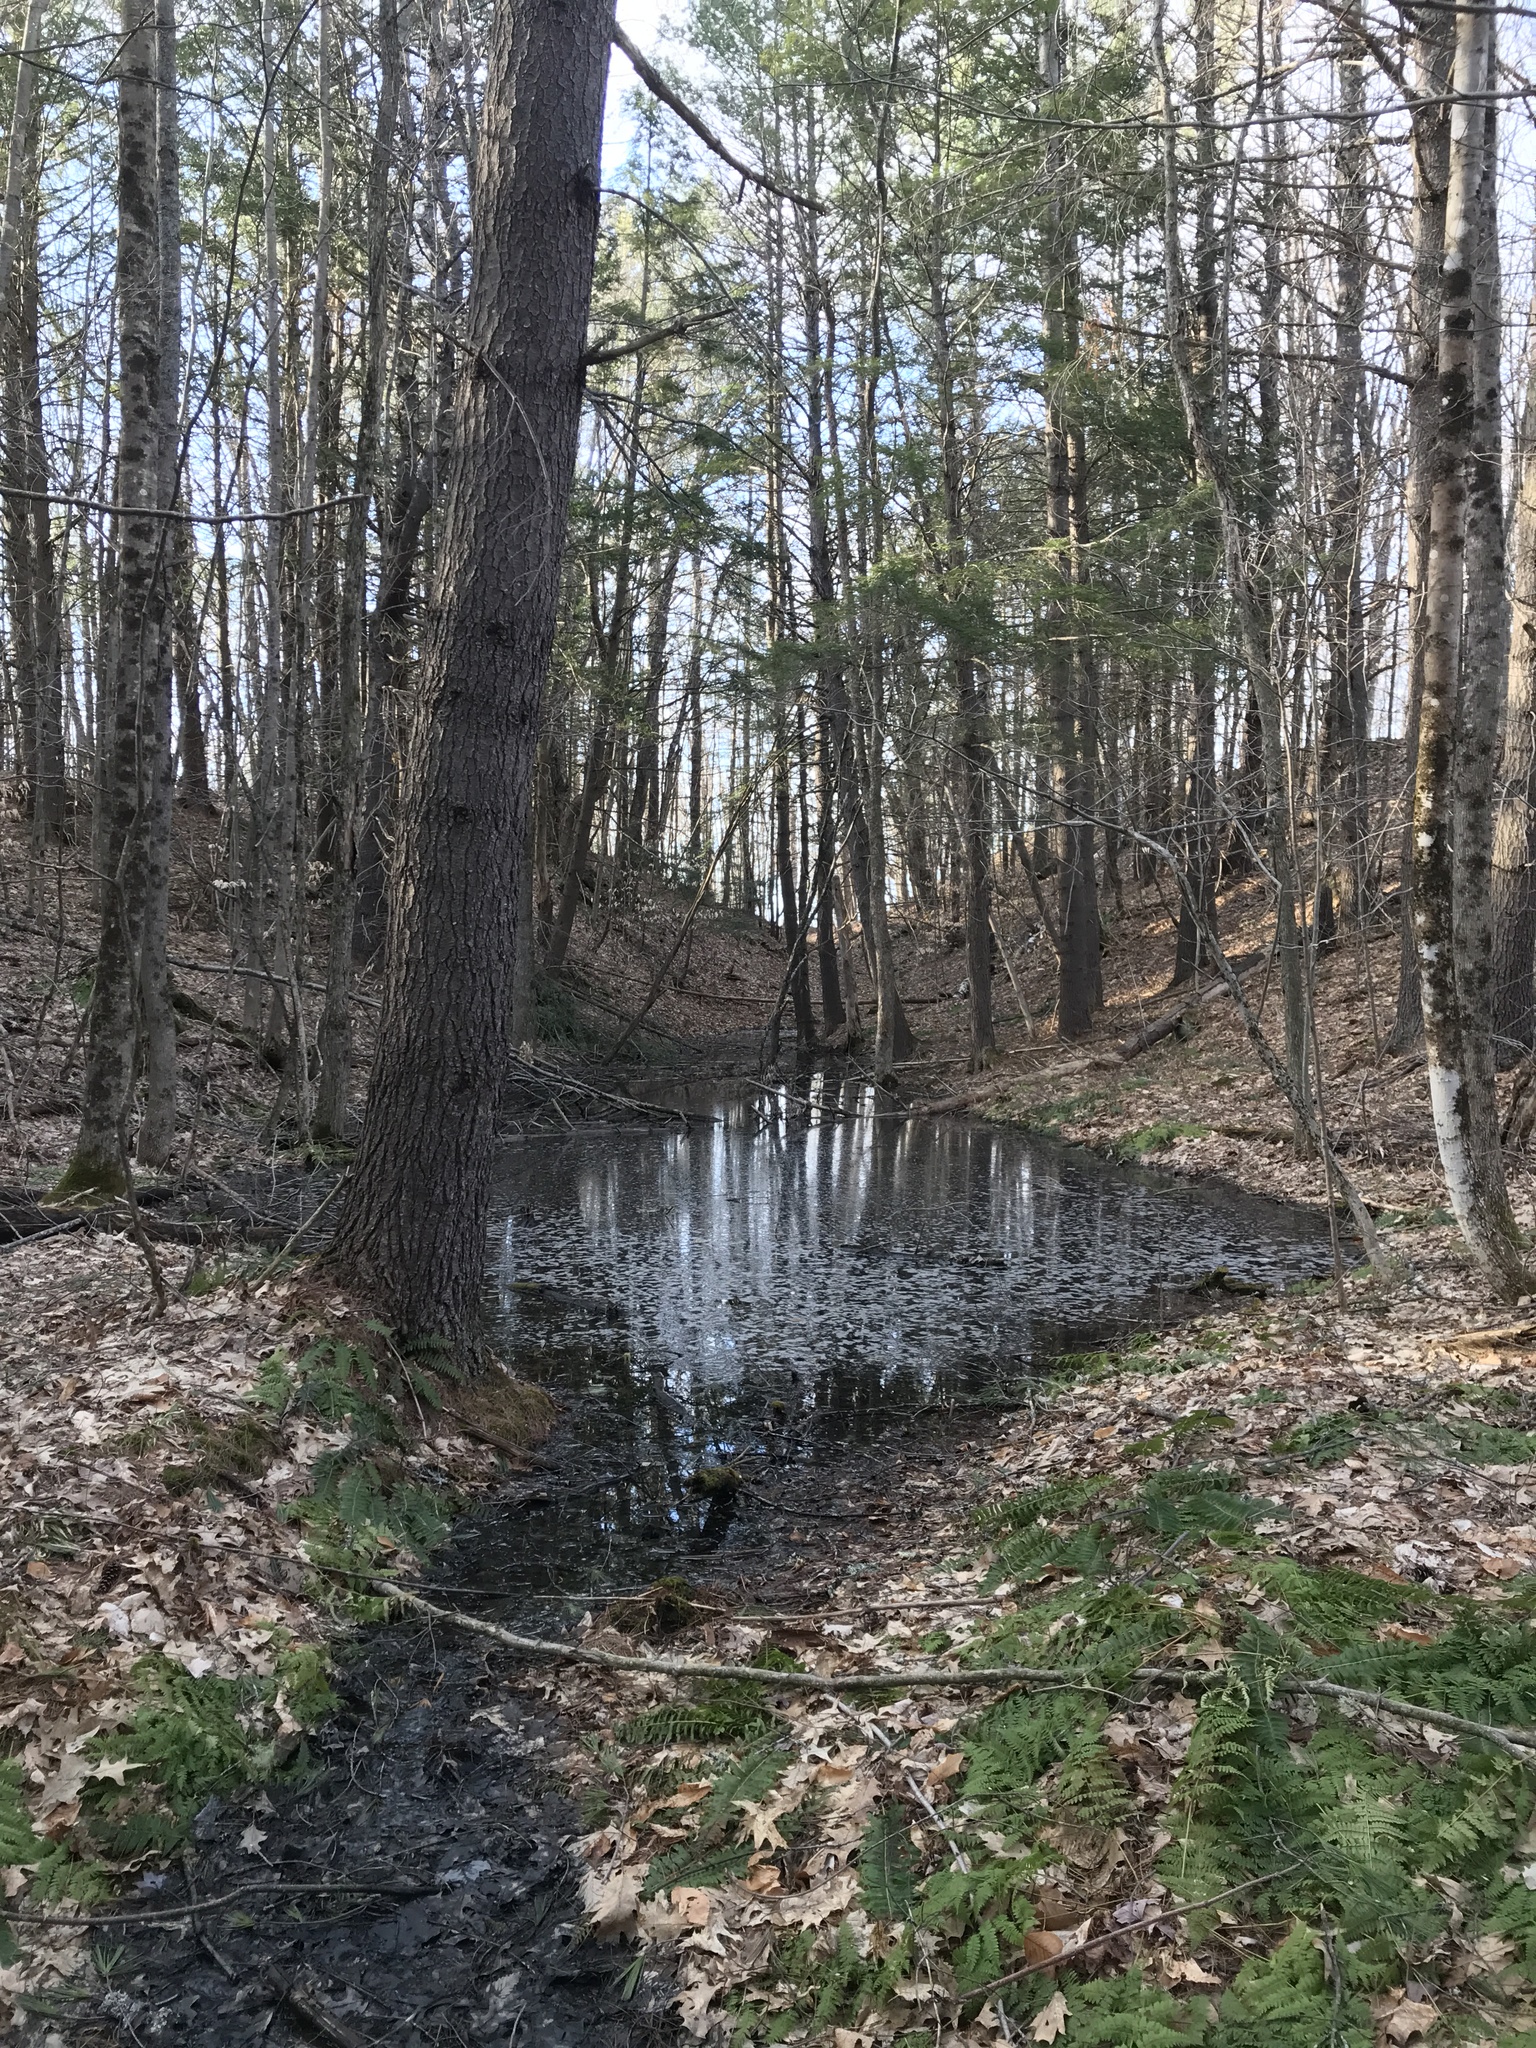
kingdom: Animalia
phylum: Chordata
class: Amphibia
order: Anura
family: Ranidae
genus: Lithobates
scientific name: Lithobates sylvaticus
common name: Wood frog
